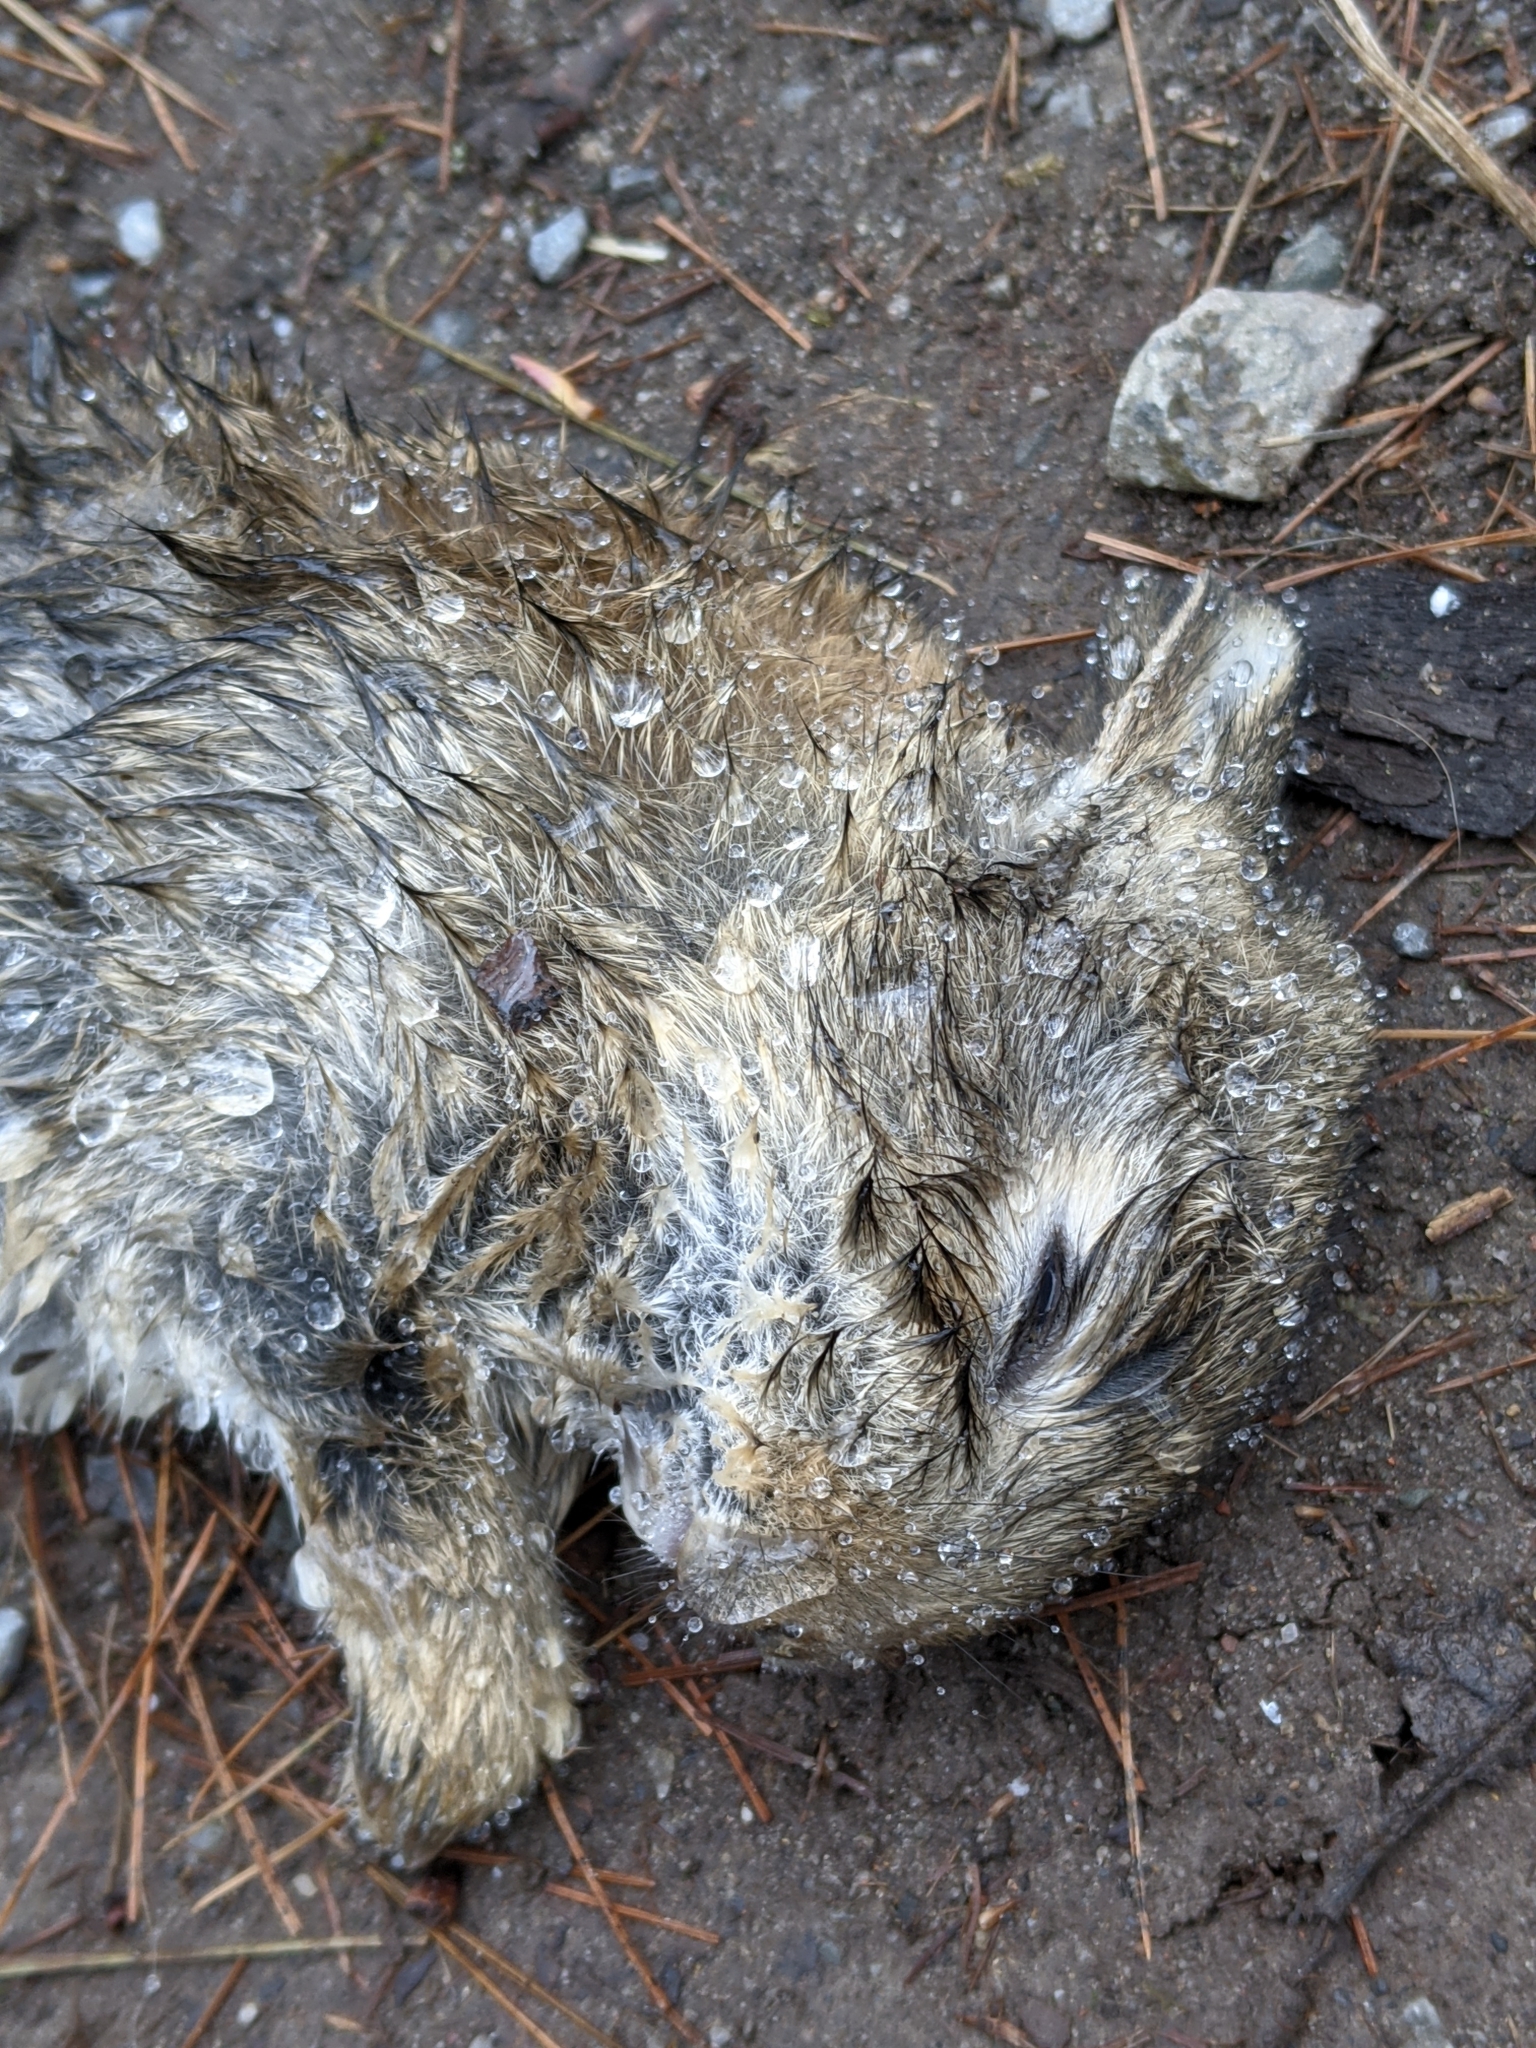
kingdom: Animalia
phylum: Chordata
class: Mammalia
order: Lagomorpha
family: Leporidae
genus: Oryctolagus
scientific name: Oryctolagus cuniculus
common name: European rabbit
